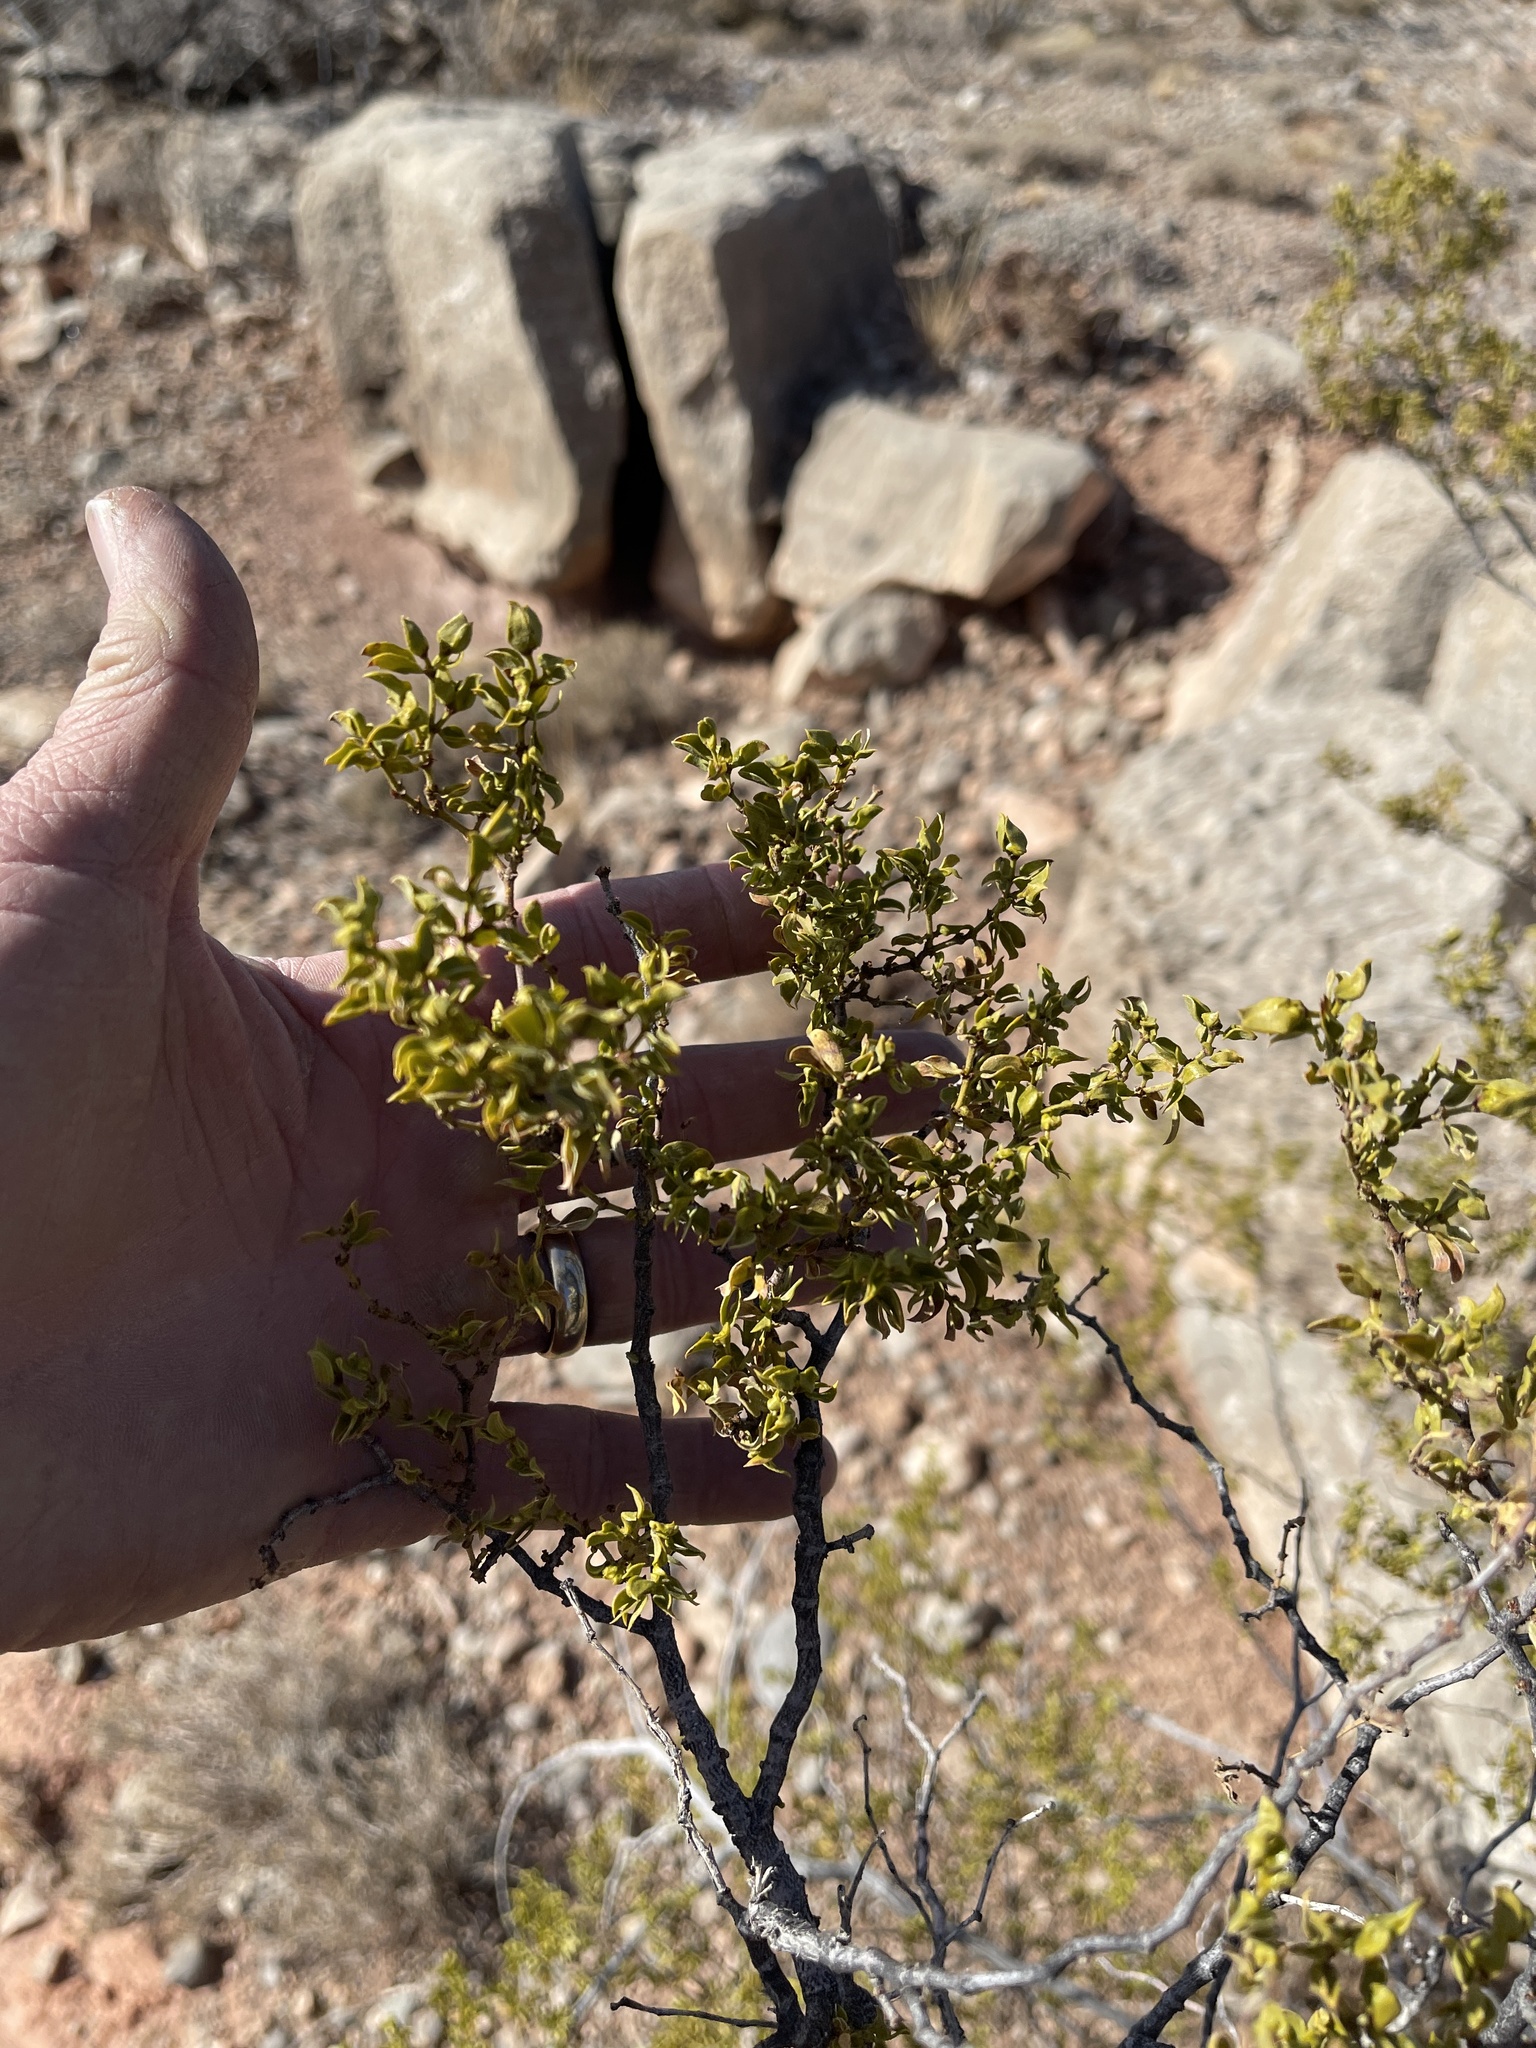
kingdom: Plantae
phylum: Tracheophyta
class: Magnoliopsida
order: Zygophyllales
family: Zygophyllaceae
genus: Larrea
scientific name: Larrea tridentata
